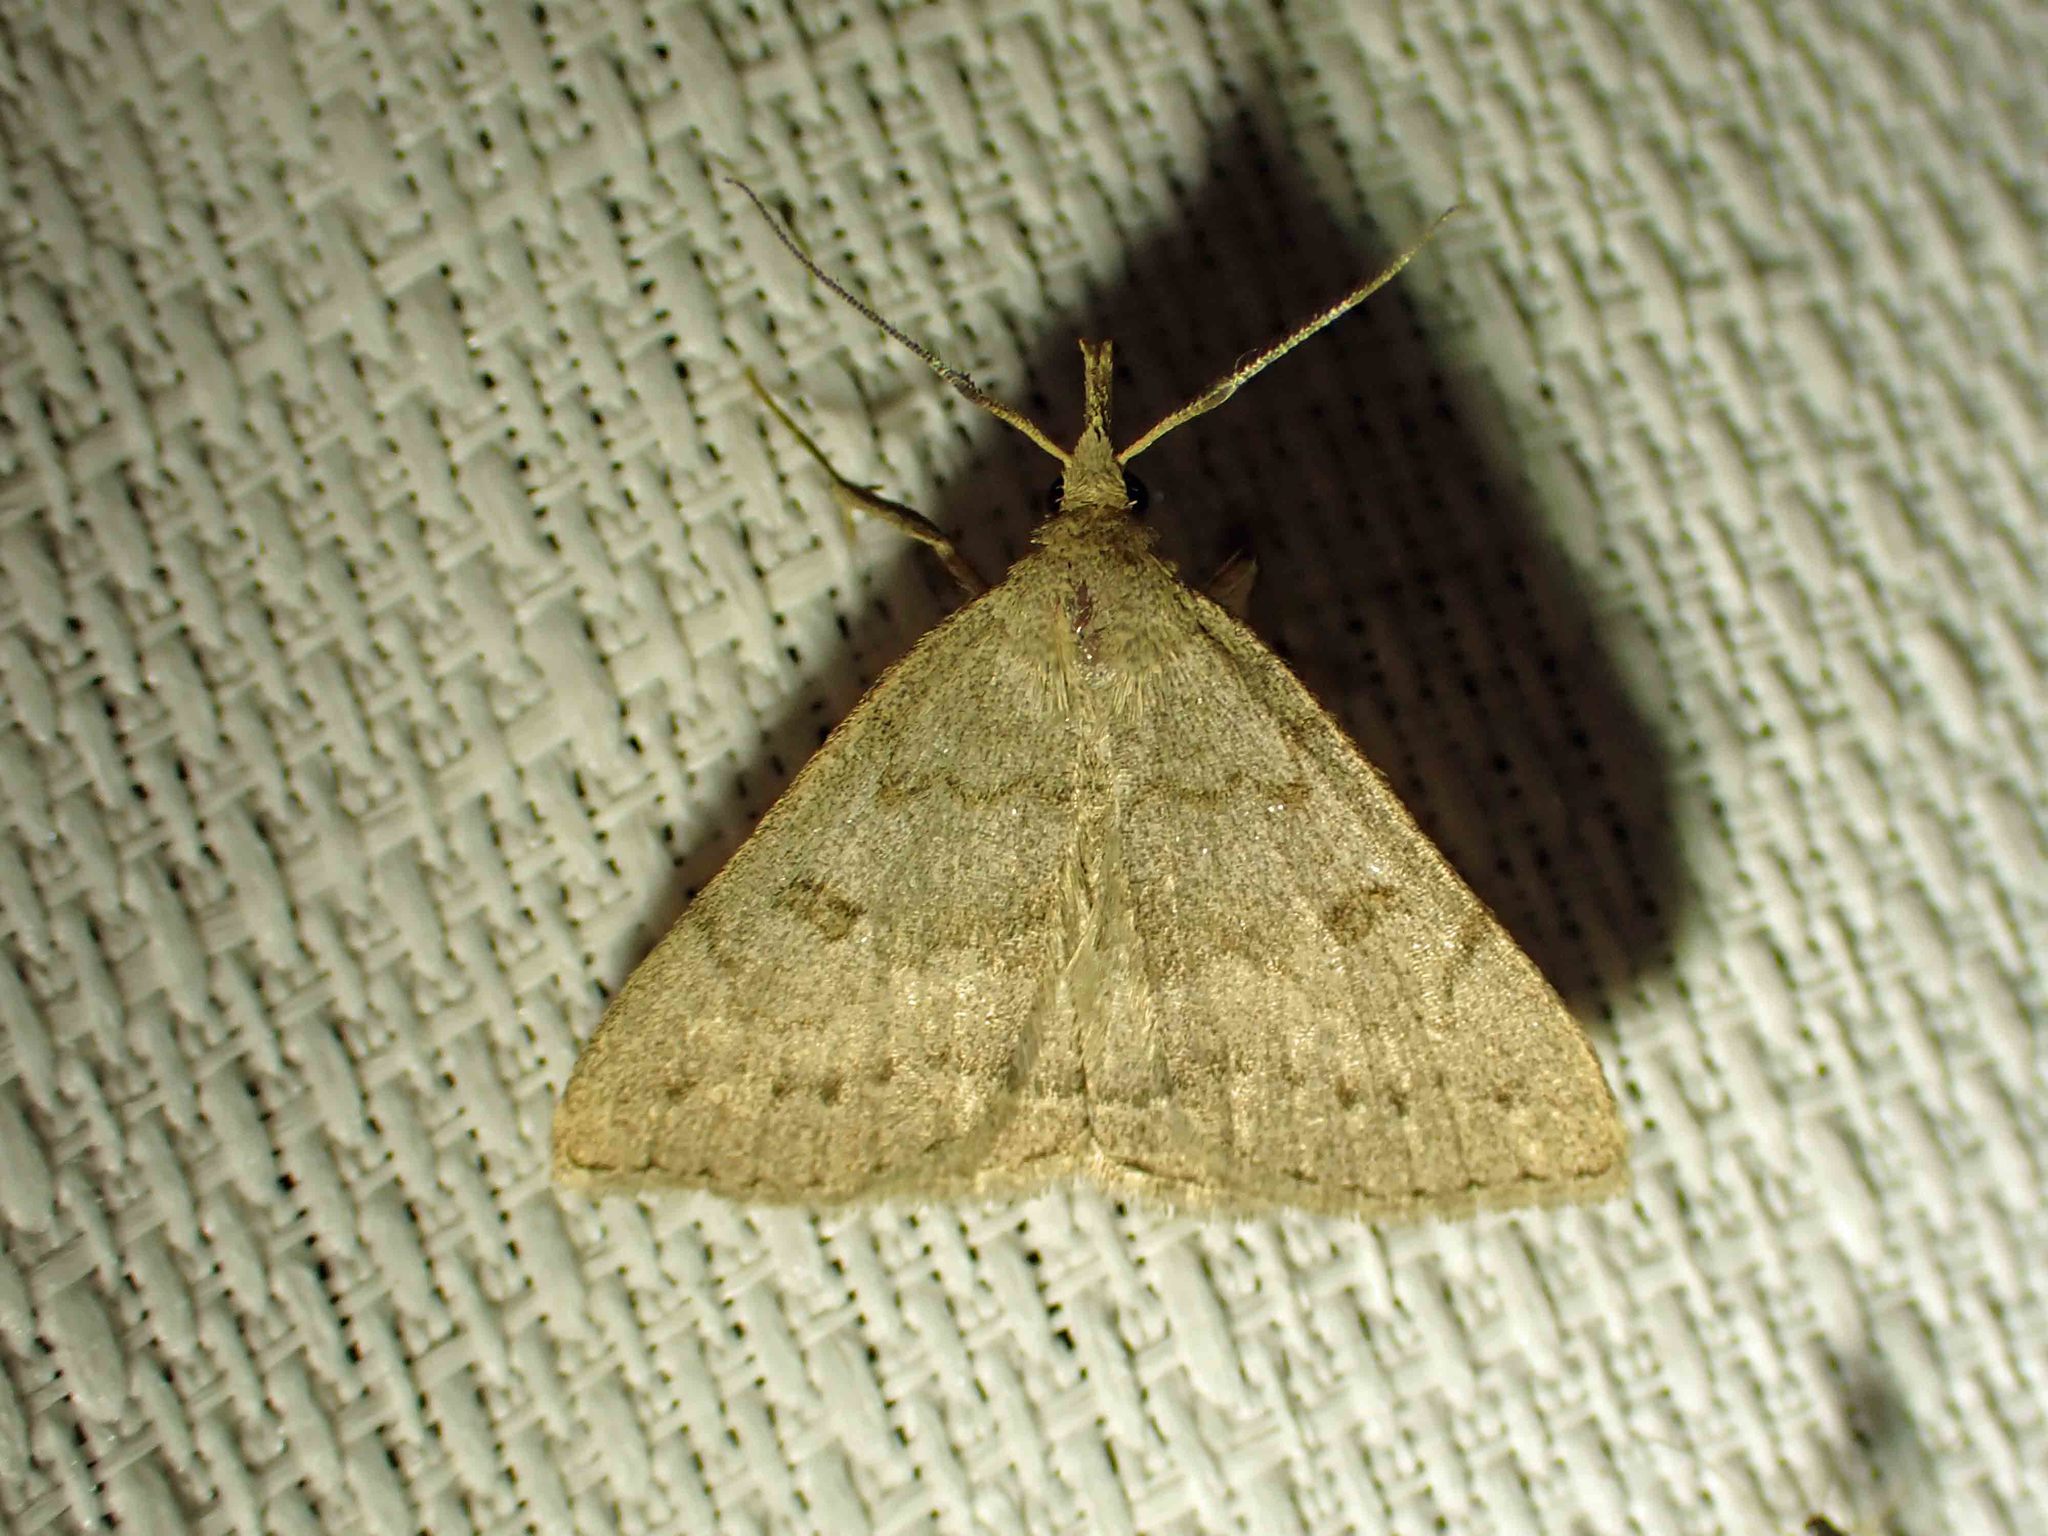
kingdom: Animalia
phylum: Arthropoda
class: Insecta
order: Lepidoptera
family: Erebidae
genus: Macrochilo
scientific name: Macrochilo morbidalis
